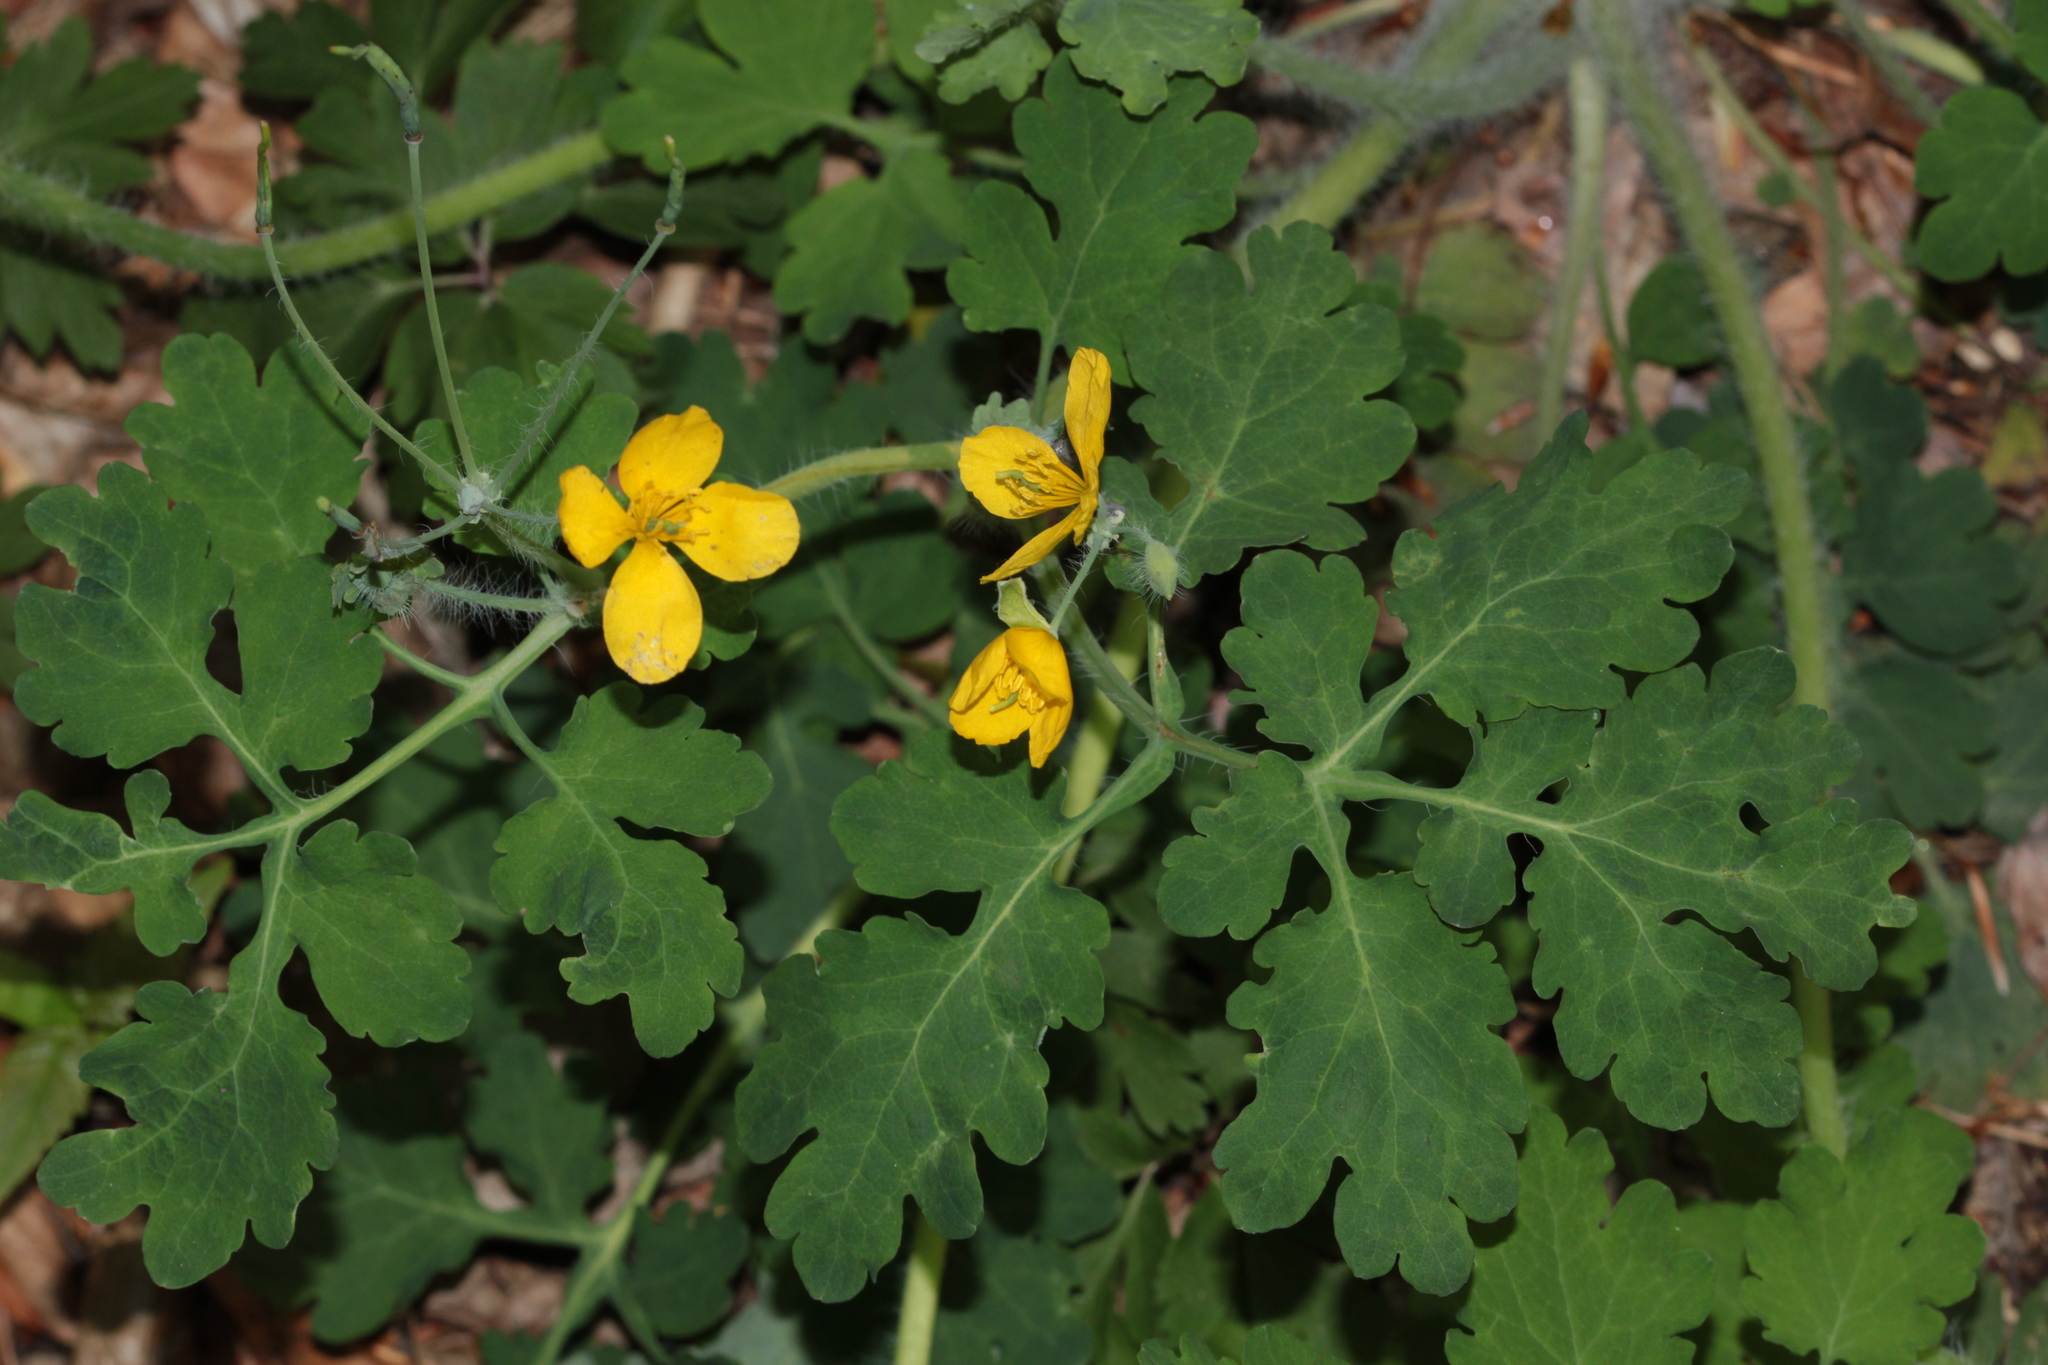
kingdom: Plantae
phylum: Tracheophyta
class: Magnoliopsida
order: Ranunculales
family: Papaveraceae
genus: Chelidonium
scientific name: Chelidonium majus
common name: Greater celandine
